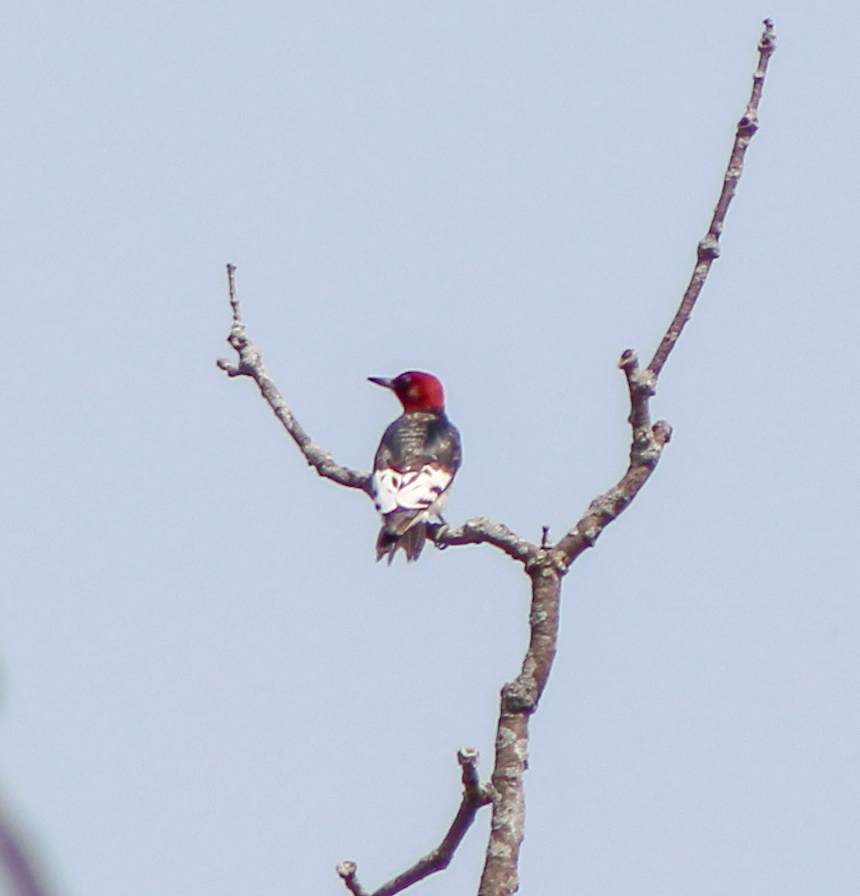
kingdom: Animalia
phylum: Chordata
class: Aves
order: Piciformes
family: Picidae
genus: Melanerpes
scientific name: Melanerpes erythrocephalus
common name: Red-headed woodpecker
